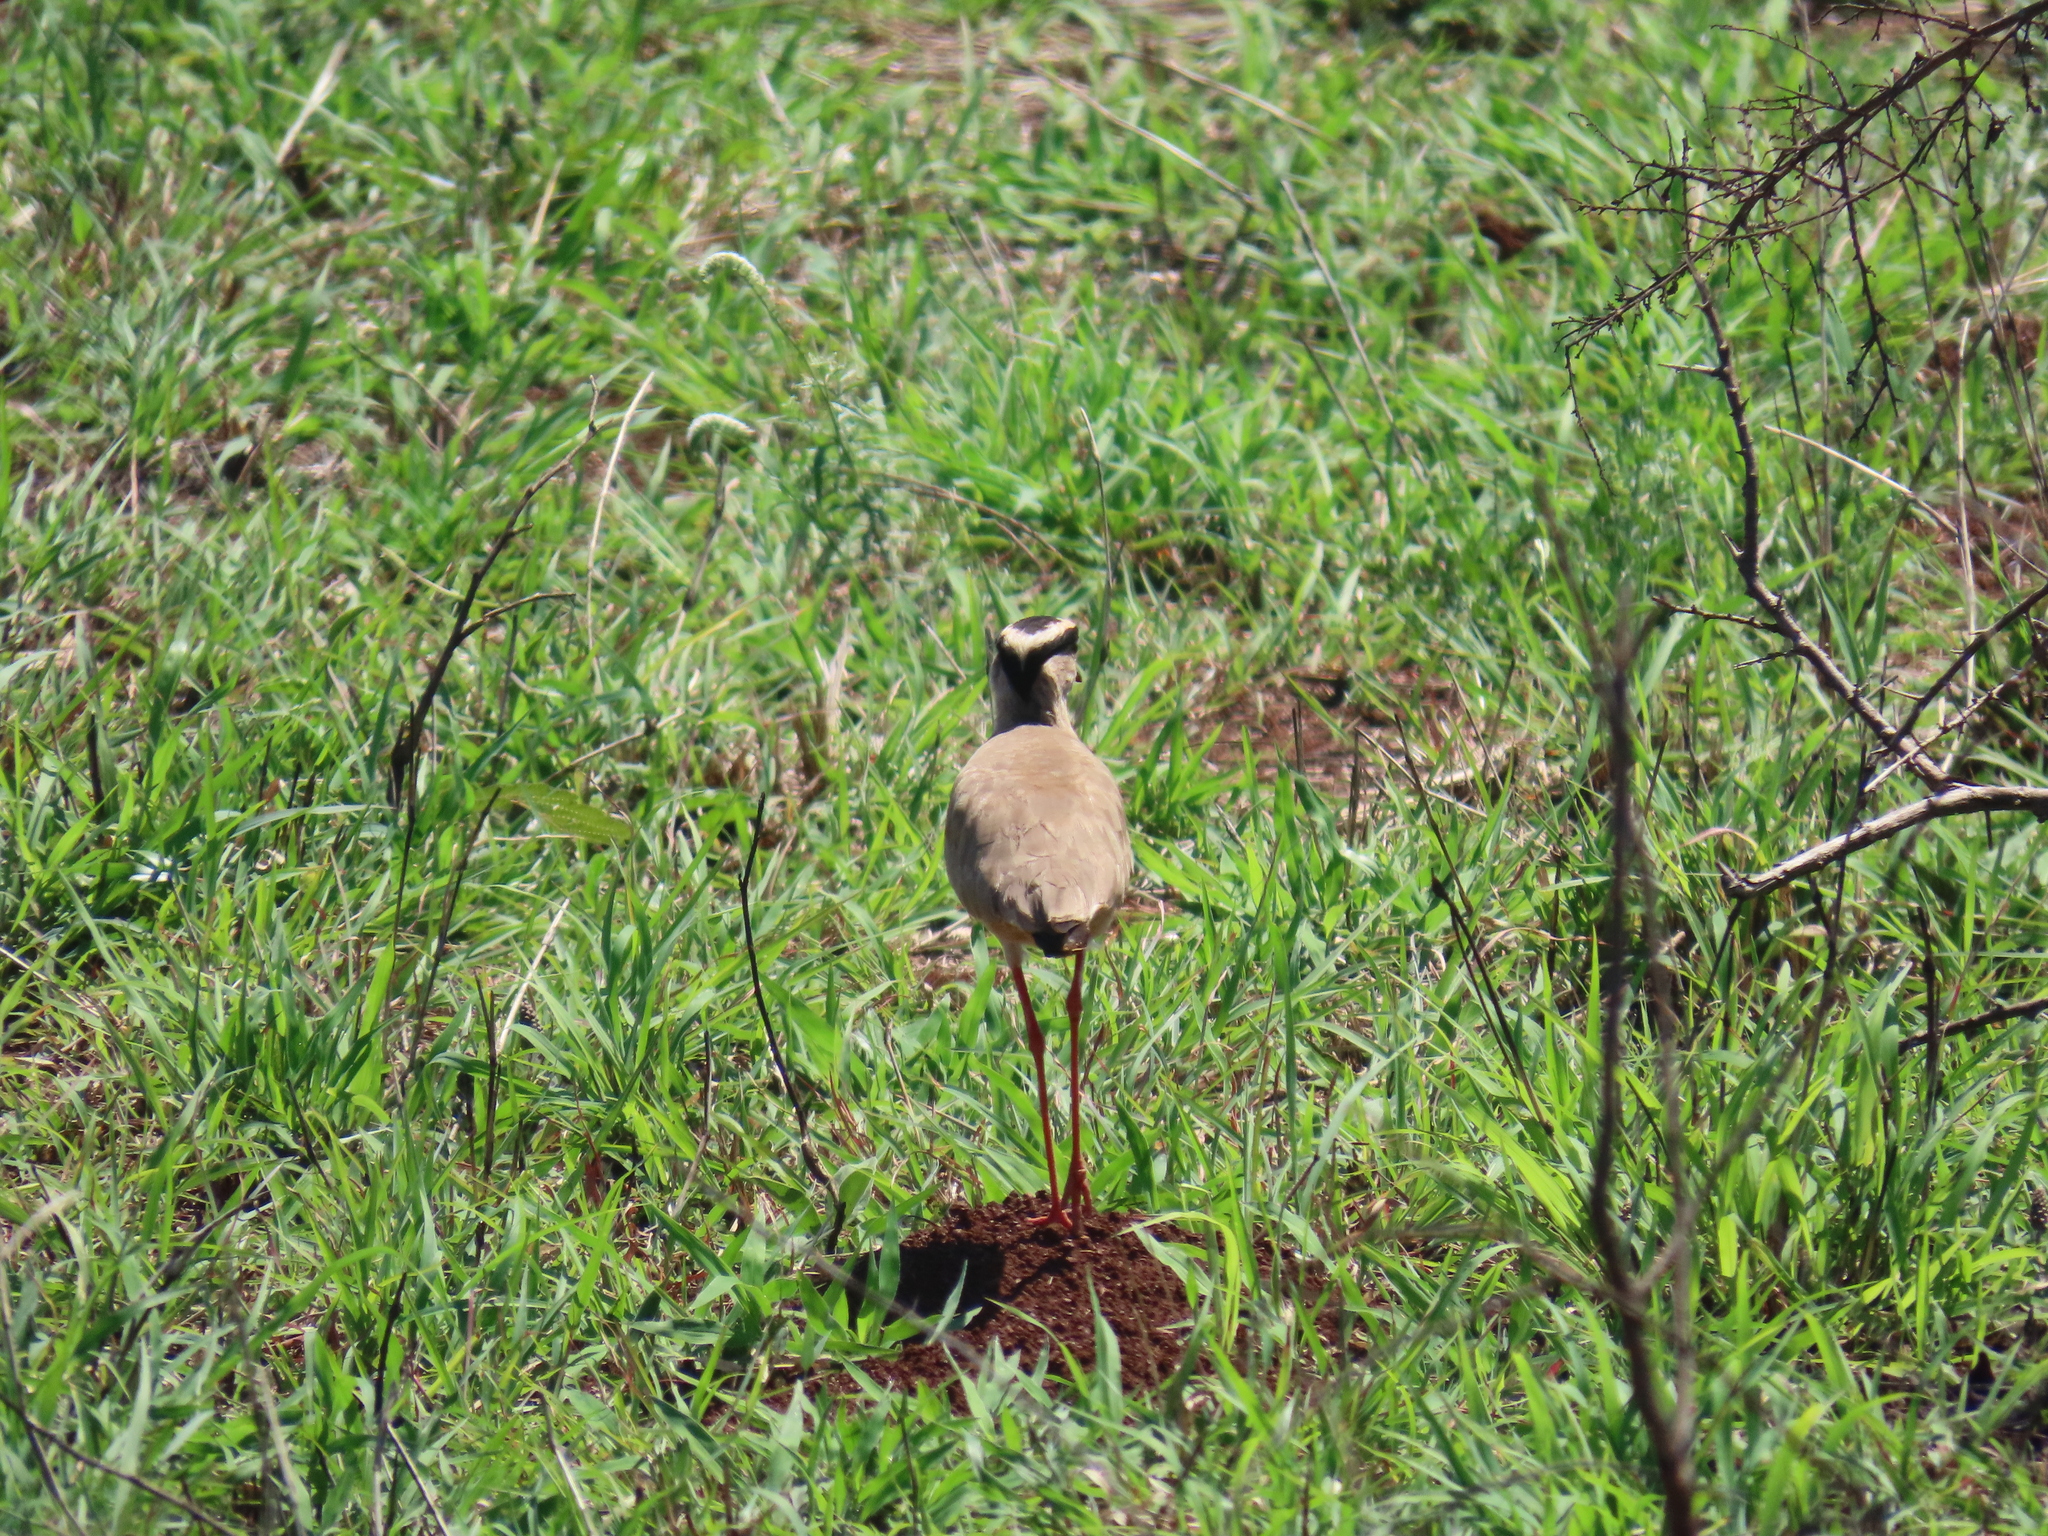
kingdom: Animalia
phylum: Chordata
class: Aves
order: Charadriiformes
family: Charadriidae
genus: Vanellus
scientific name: Vanellus coronatus
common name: Crowned lapwing
